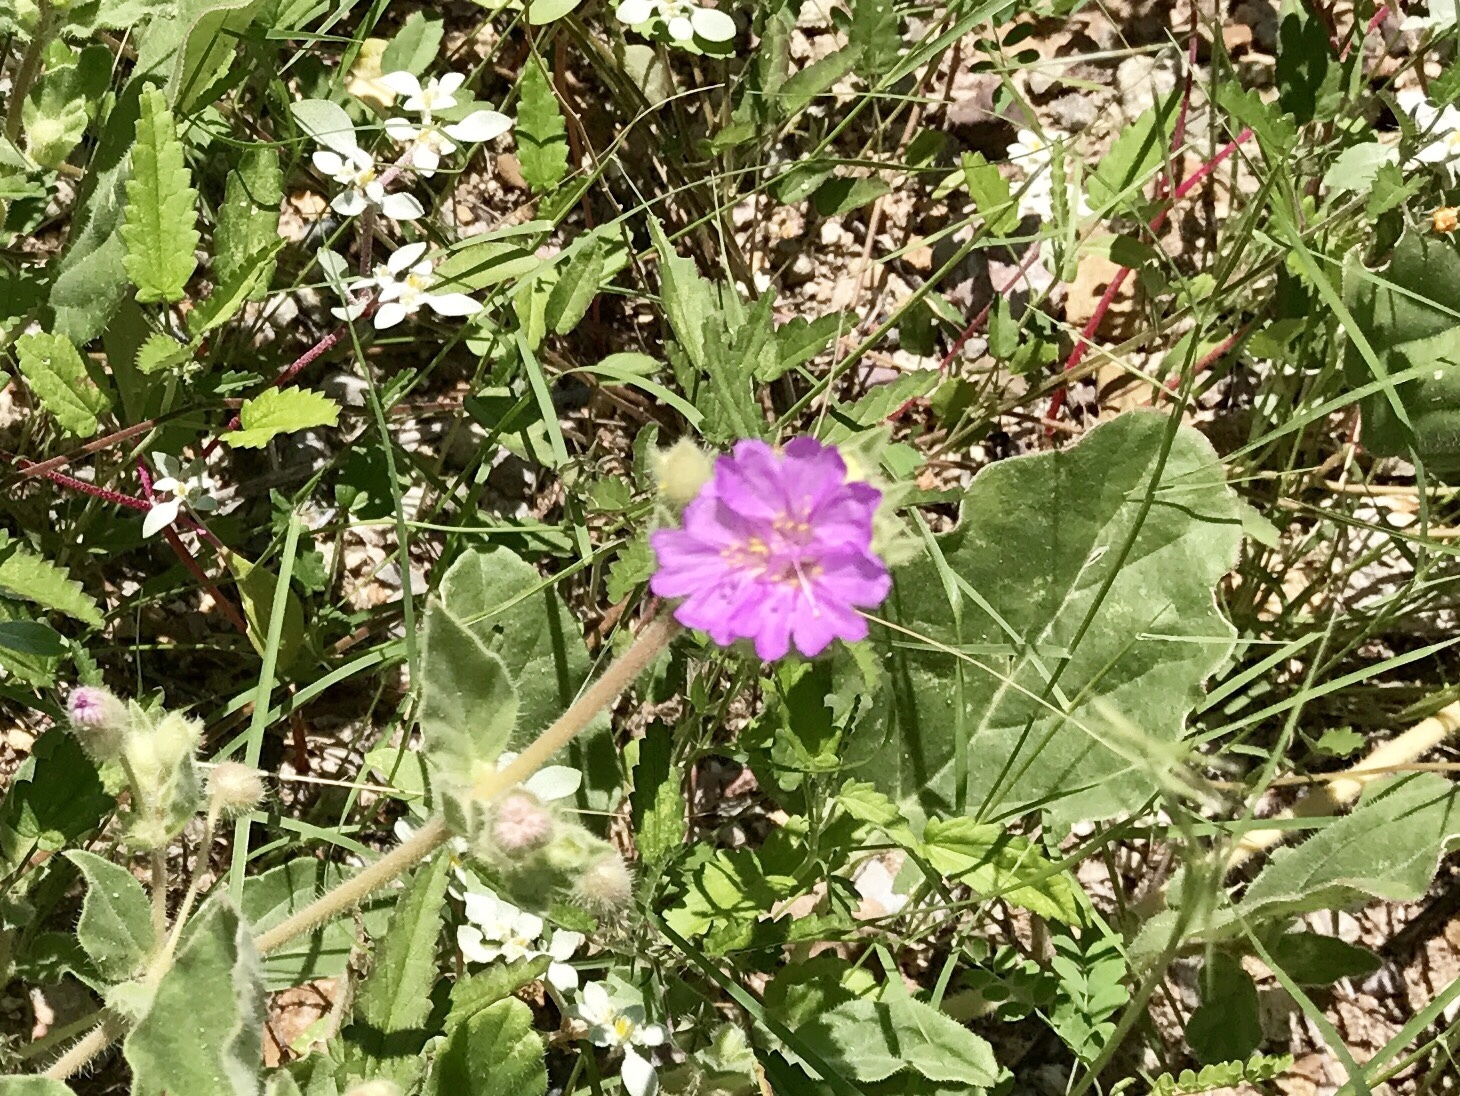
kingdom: Plantae
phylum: Tracheophyta
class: Magnoliopsida
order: Caryophyllales
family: Nyctaginaceae
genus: Allionia
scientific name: Allionia incarnata
